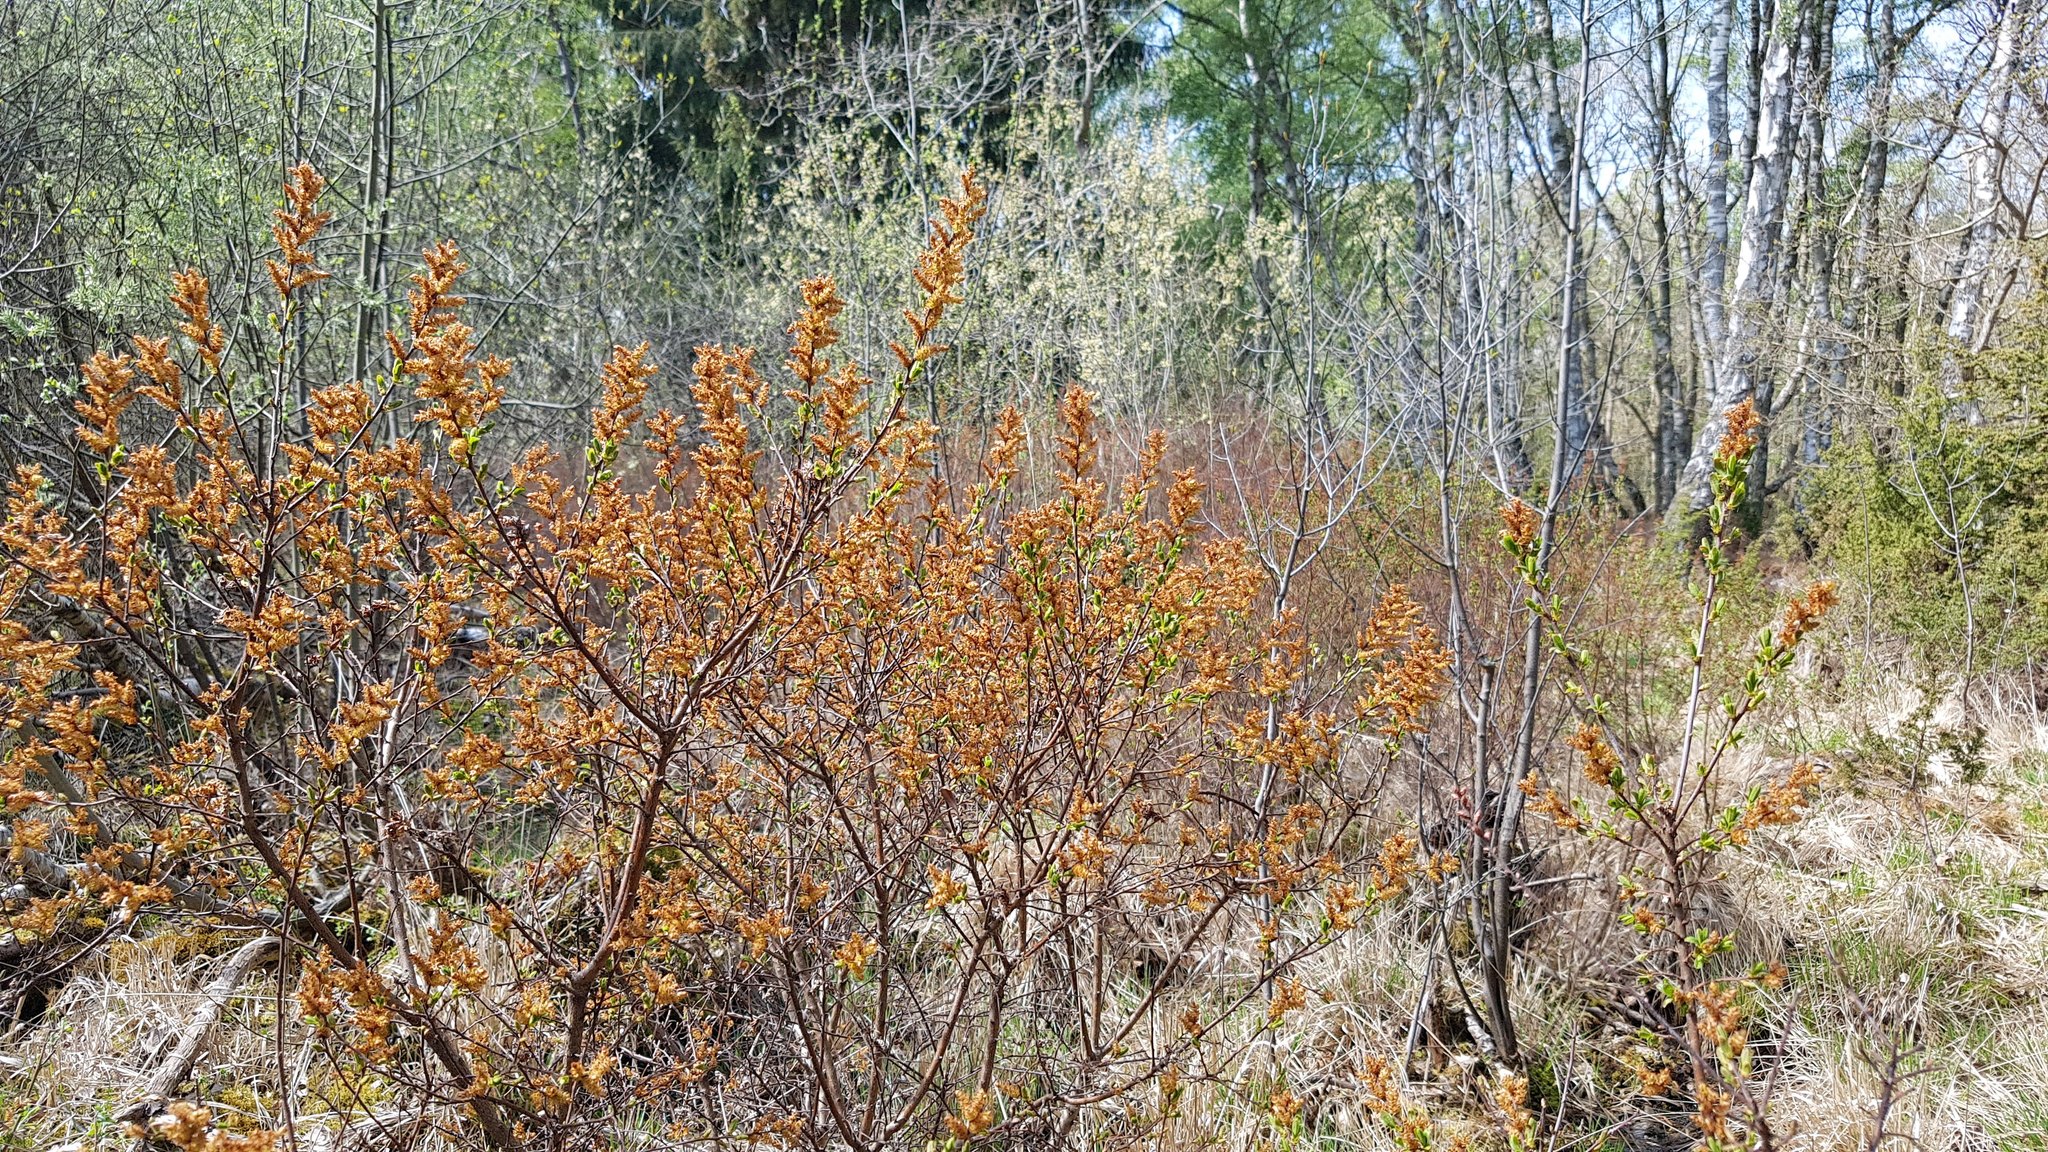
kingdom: Plantae
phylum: Tracheophyta
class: Magnoliopsida
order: Fagales
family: Myricaceae
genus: Myrica
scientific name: Myrica gale
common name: Sweet gale
